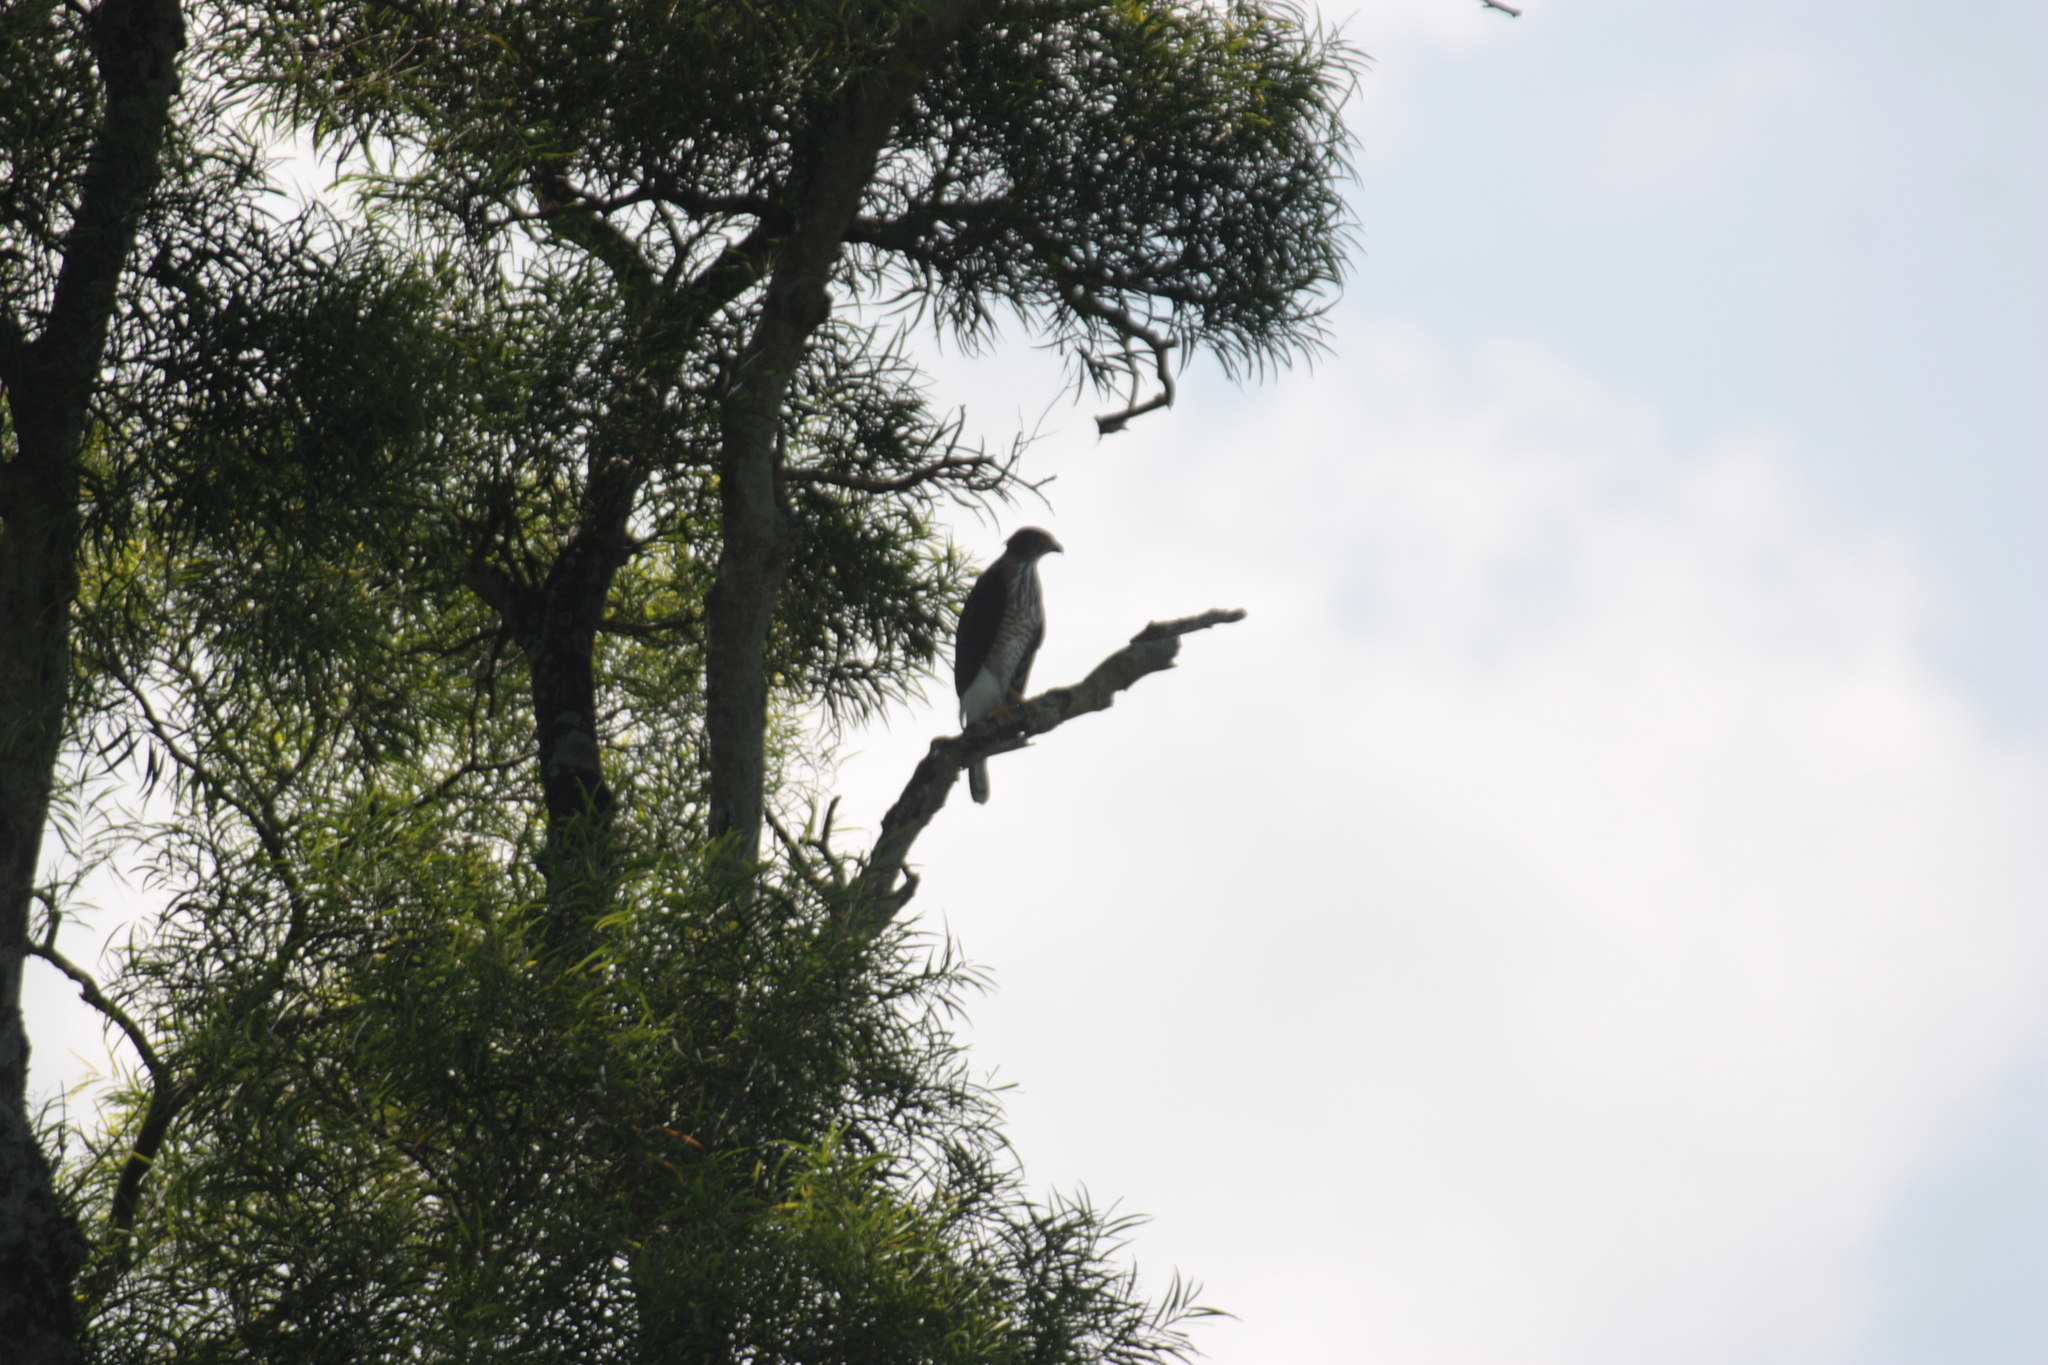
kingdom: Animalia
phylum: Chordata
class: Aves
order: Accipitriformes
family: Accipitridae
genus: Accipiter
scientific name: Accipiter trivirgatus
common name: Crested goshawk
